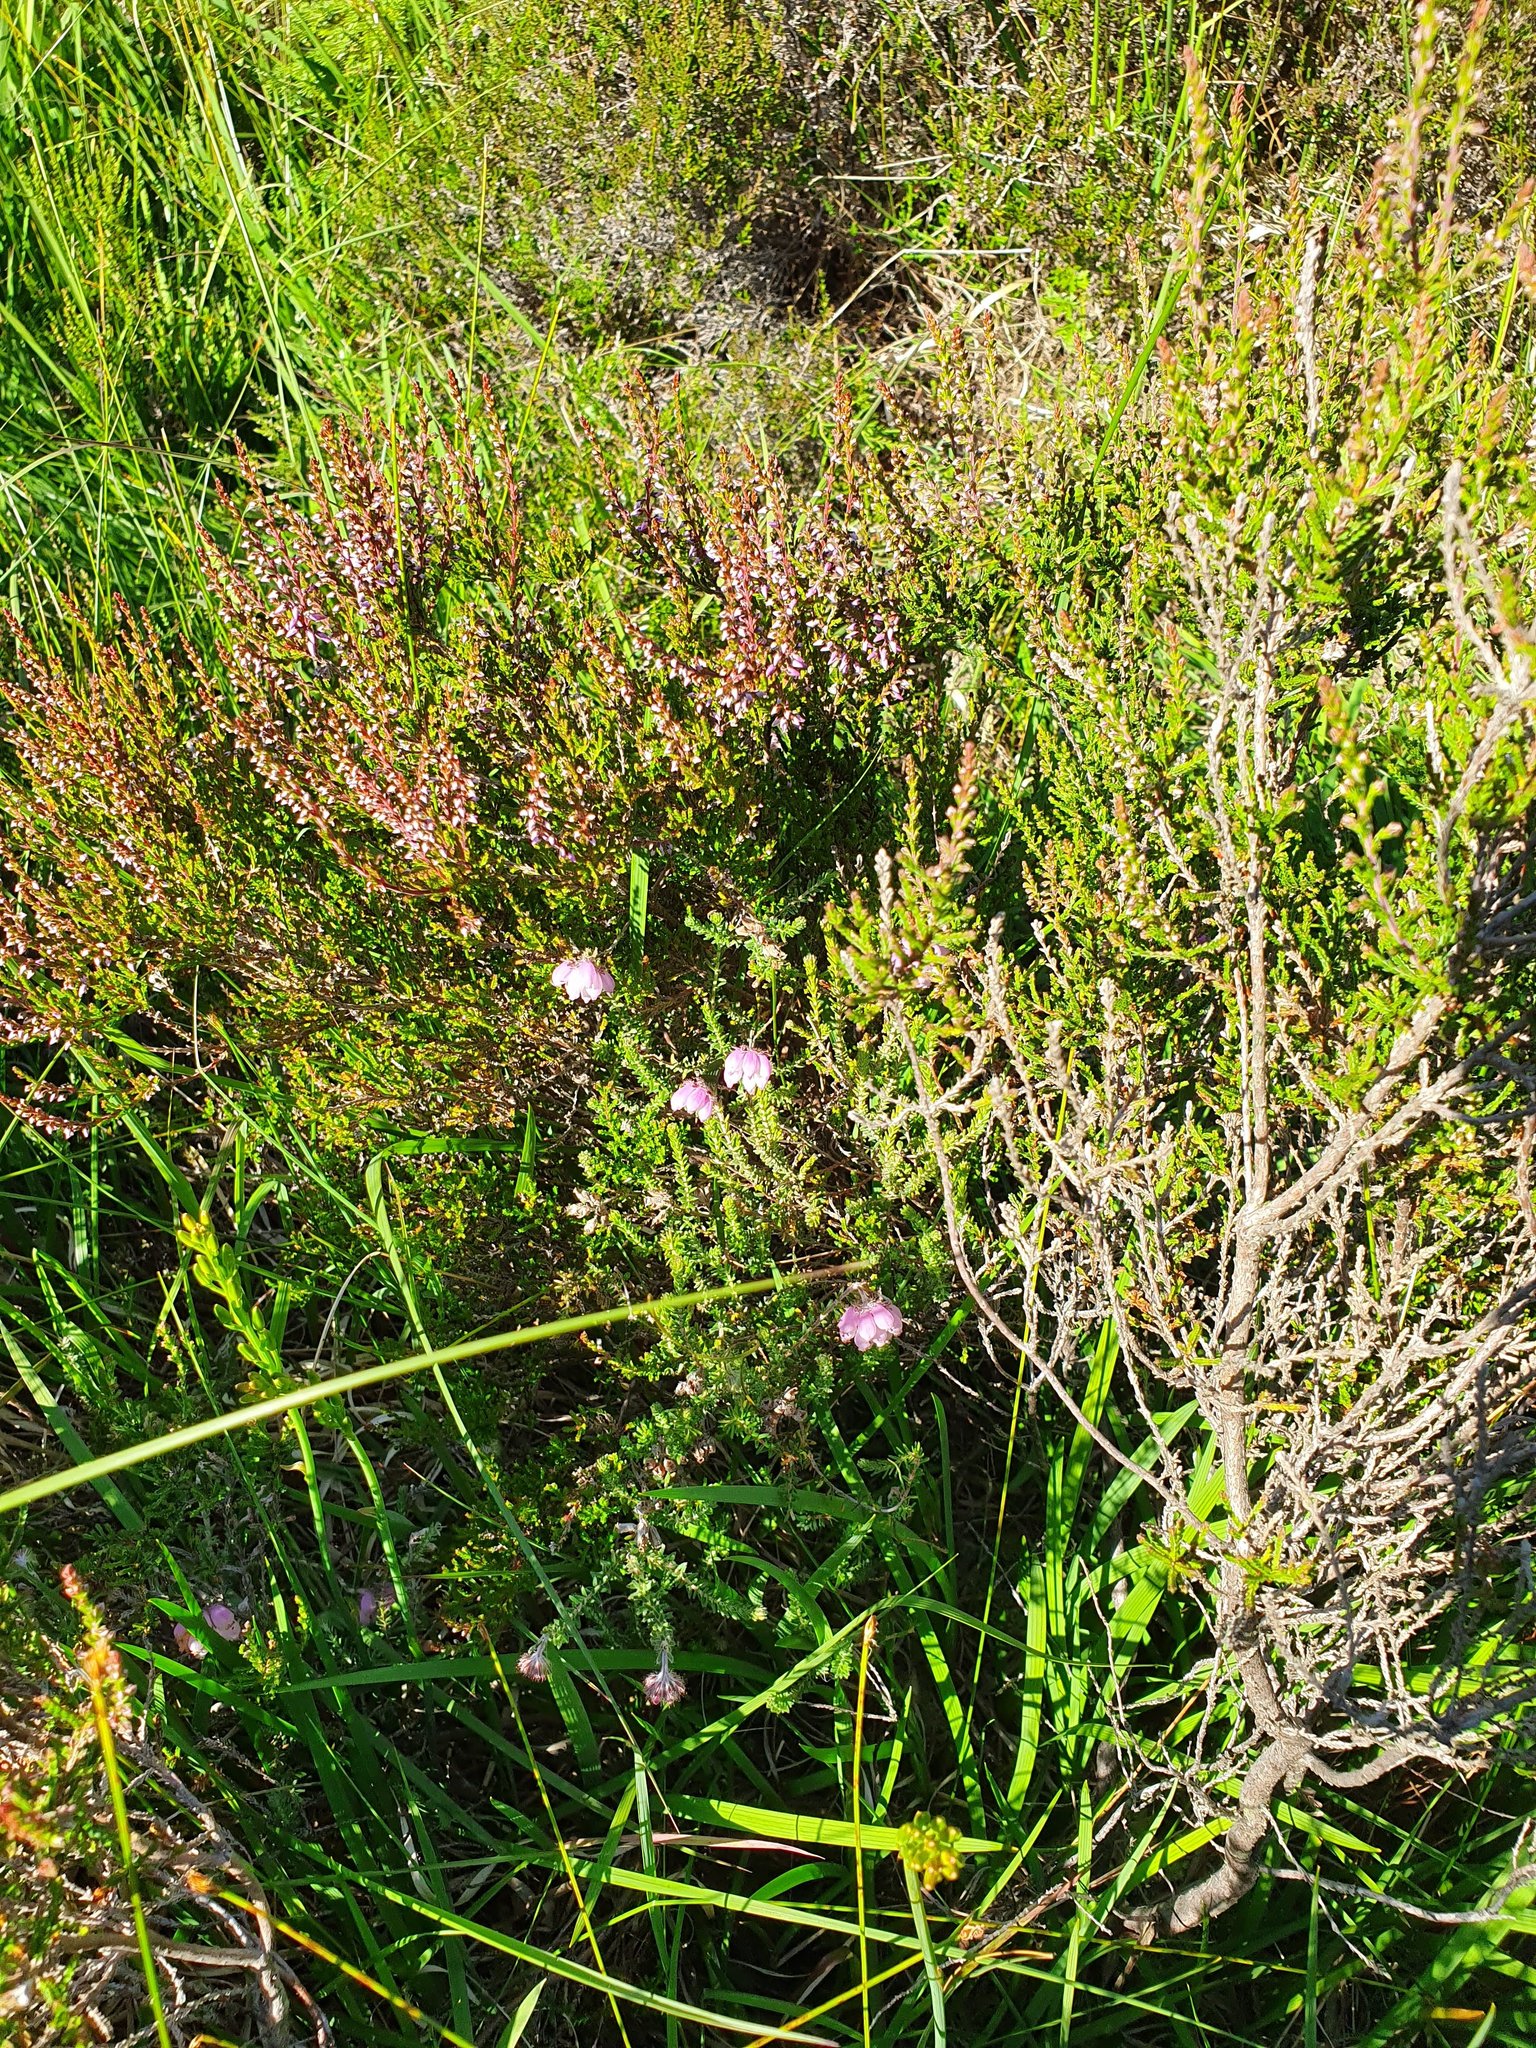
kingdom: Plantae
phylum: Tracheophyta
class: Magnoliopsida
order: Ericales
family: Ericaceae
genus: Erica
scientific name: Erica tetralix
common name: Cross-leaved heath
